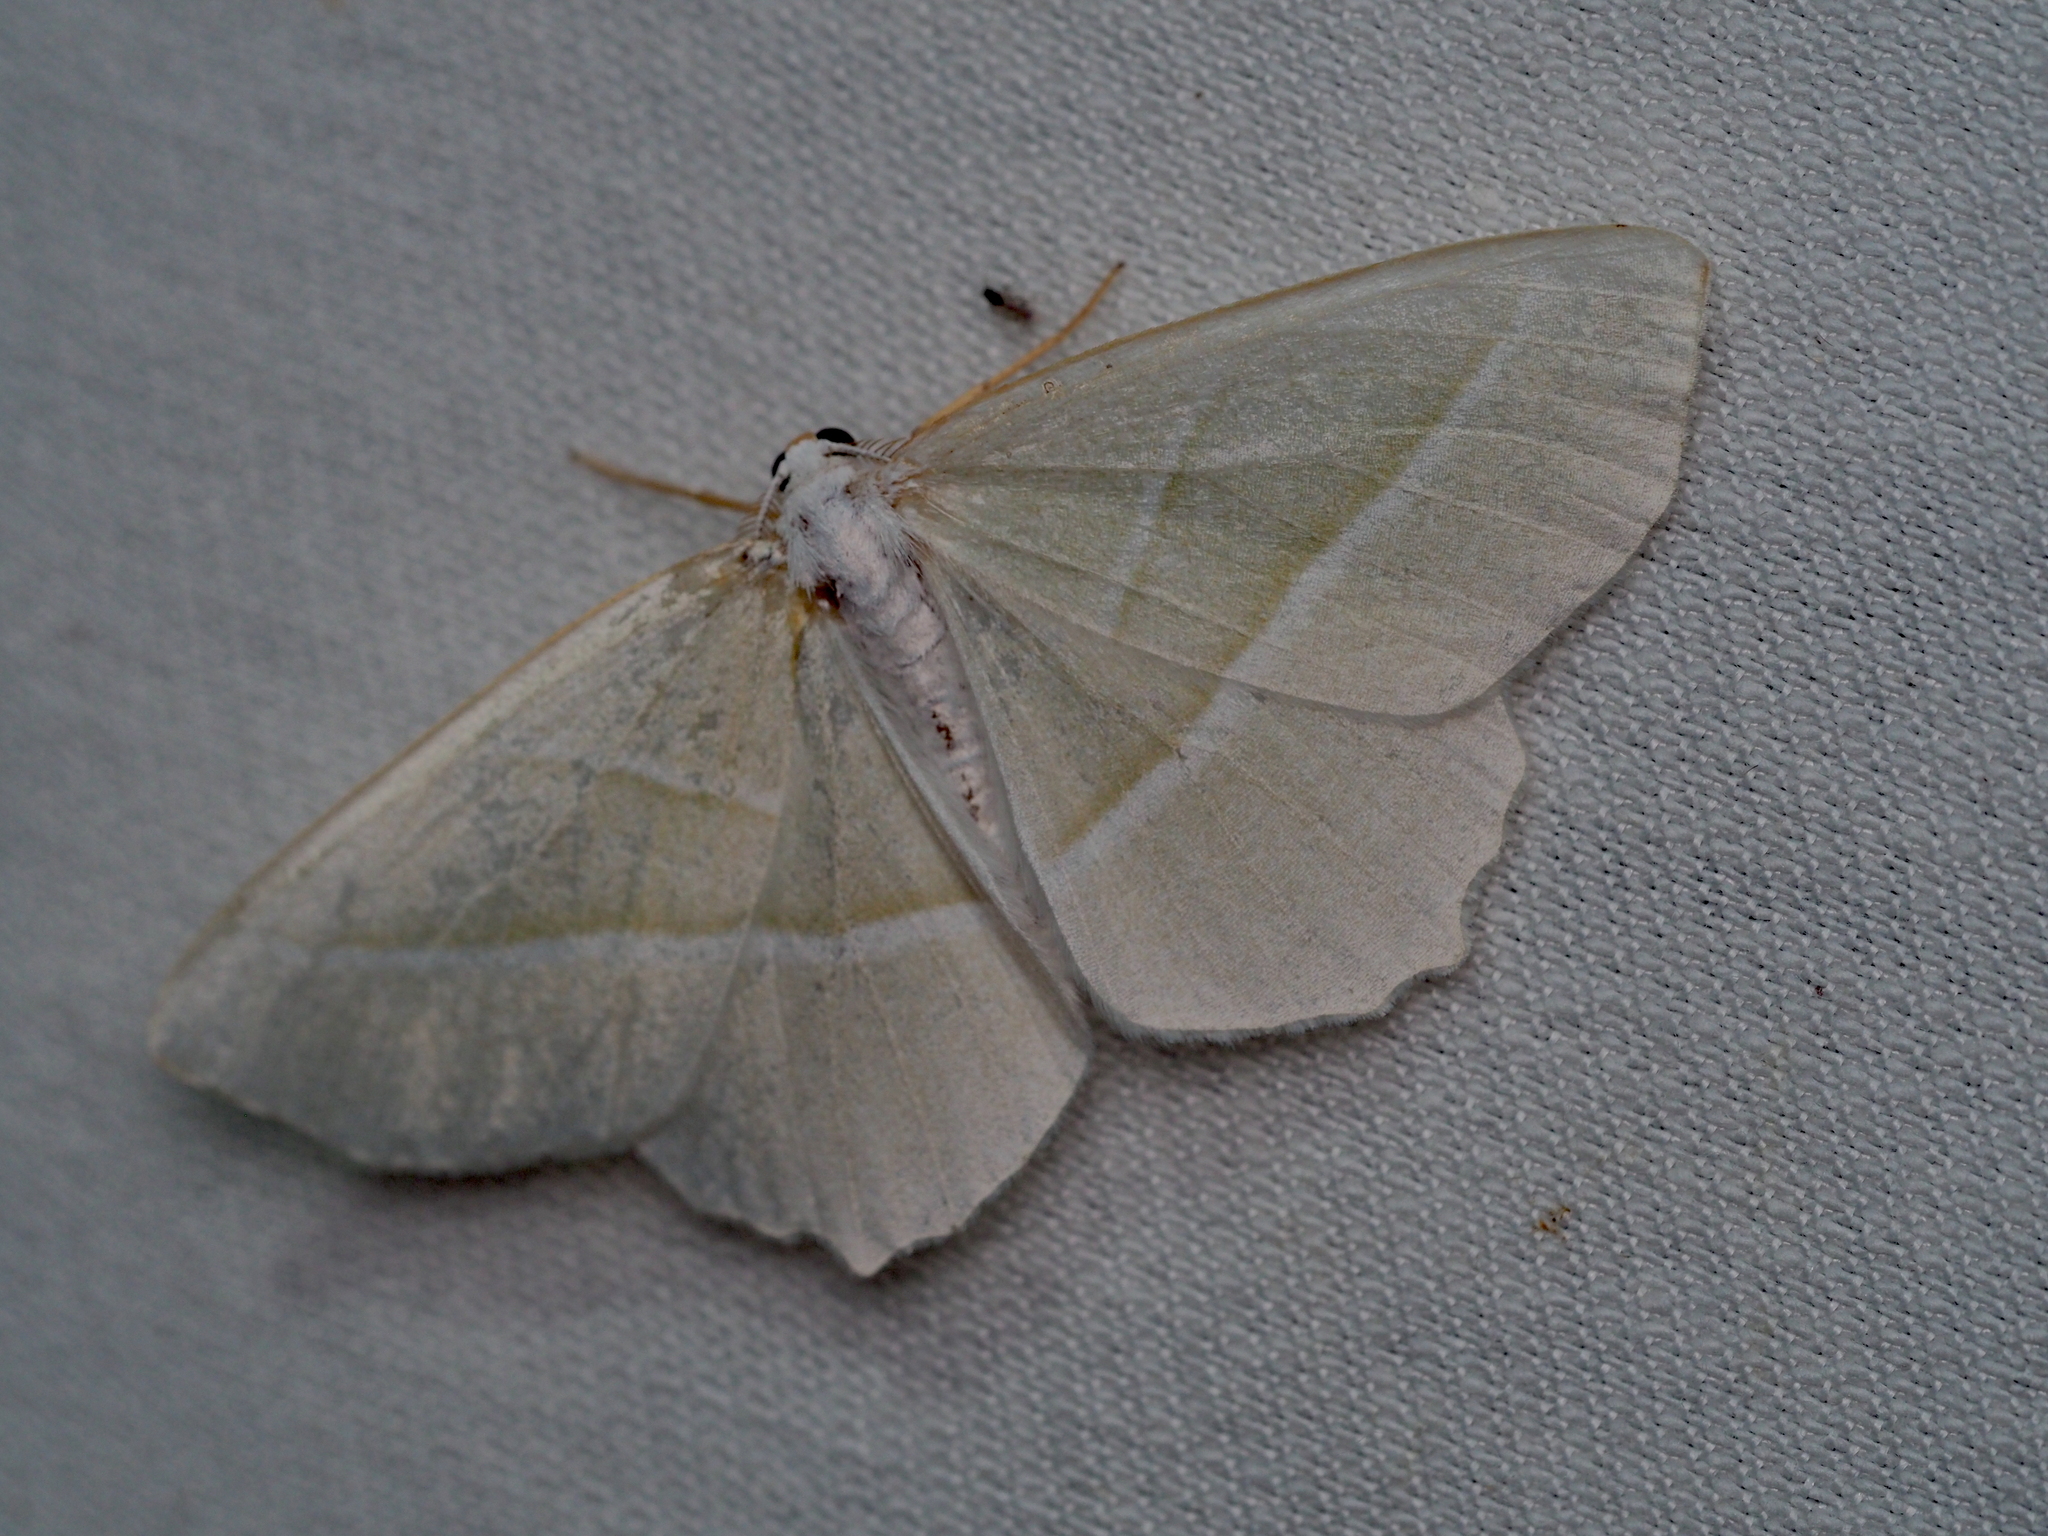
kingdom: Animalia
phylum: Arthropoda
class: Insecta
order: Lepidoptera
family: Geometridae
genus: Campaea
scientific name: Campaea margaritaria
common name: Light emerald
